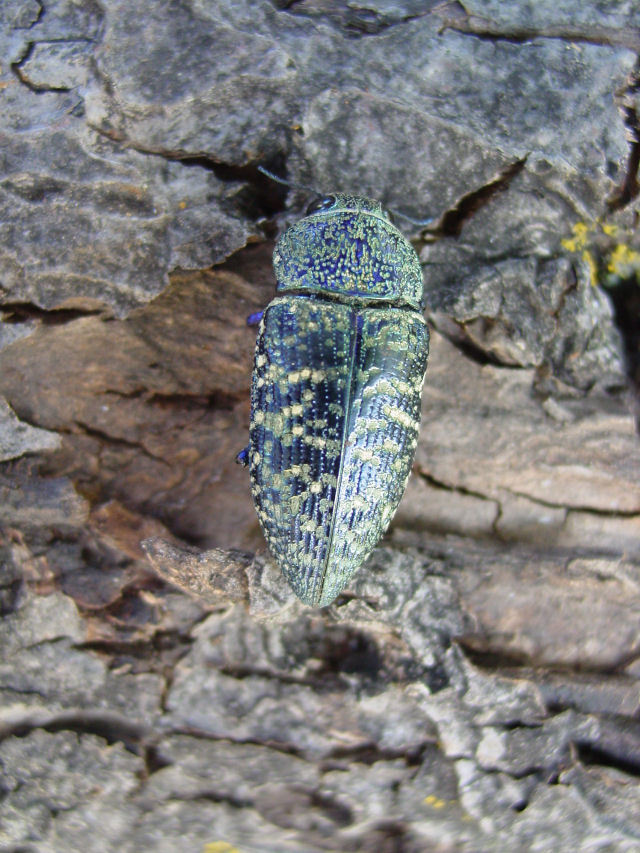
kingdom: Animalia
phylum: Arthropoda
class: Insecta
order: Coleoptera
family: Buprestidae
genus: Lampetis
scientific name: Lampetis drummondi
